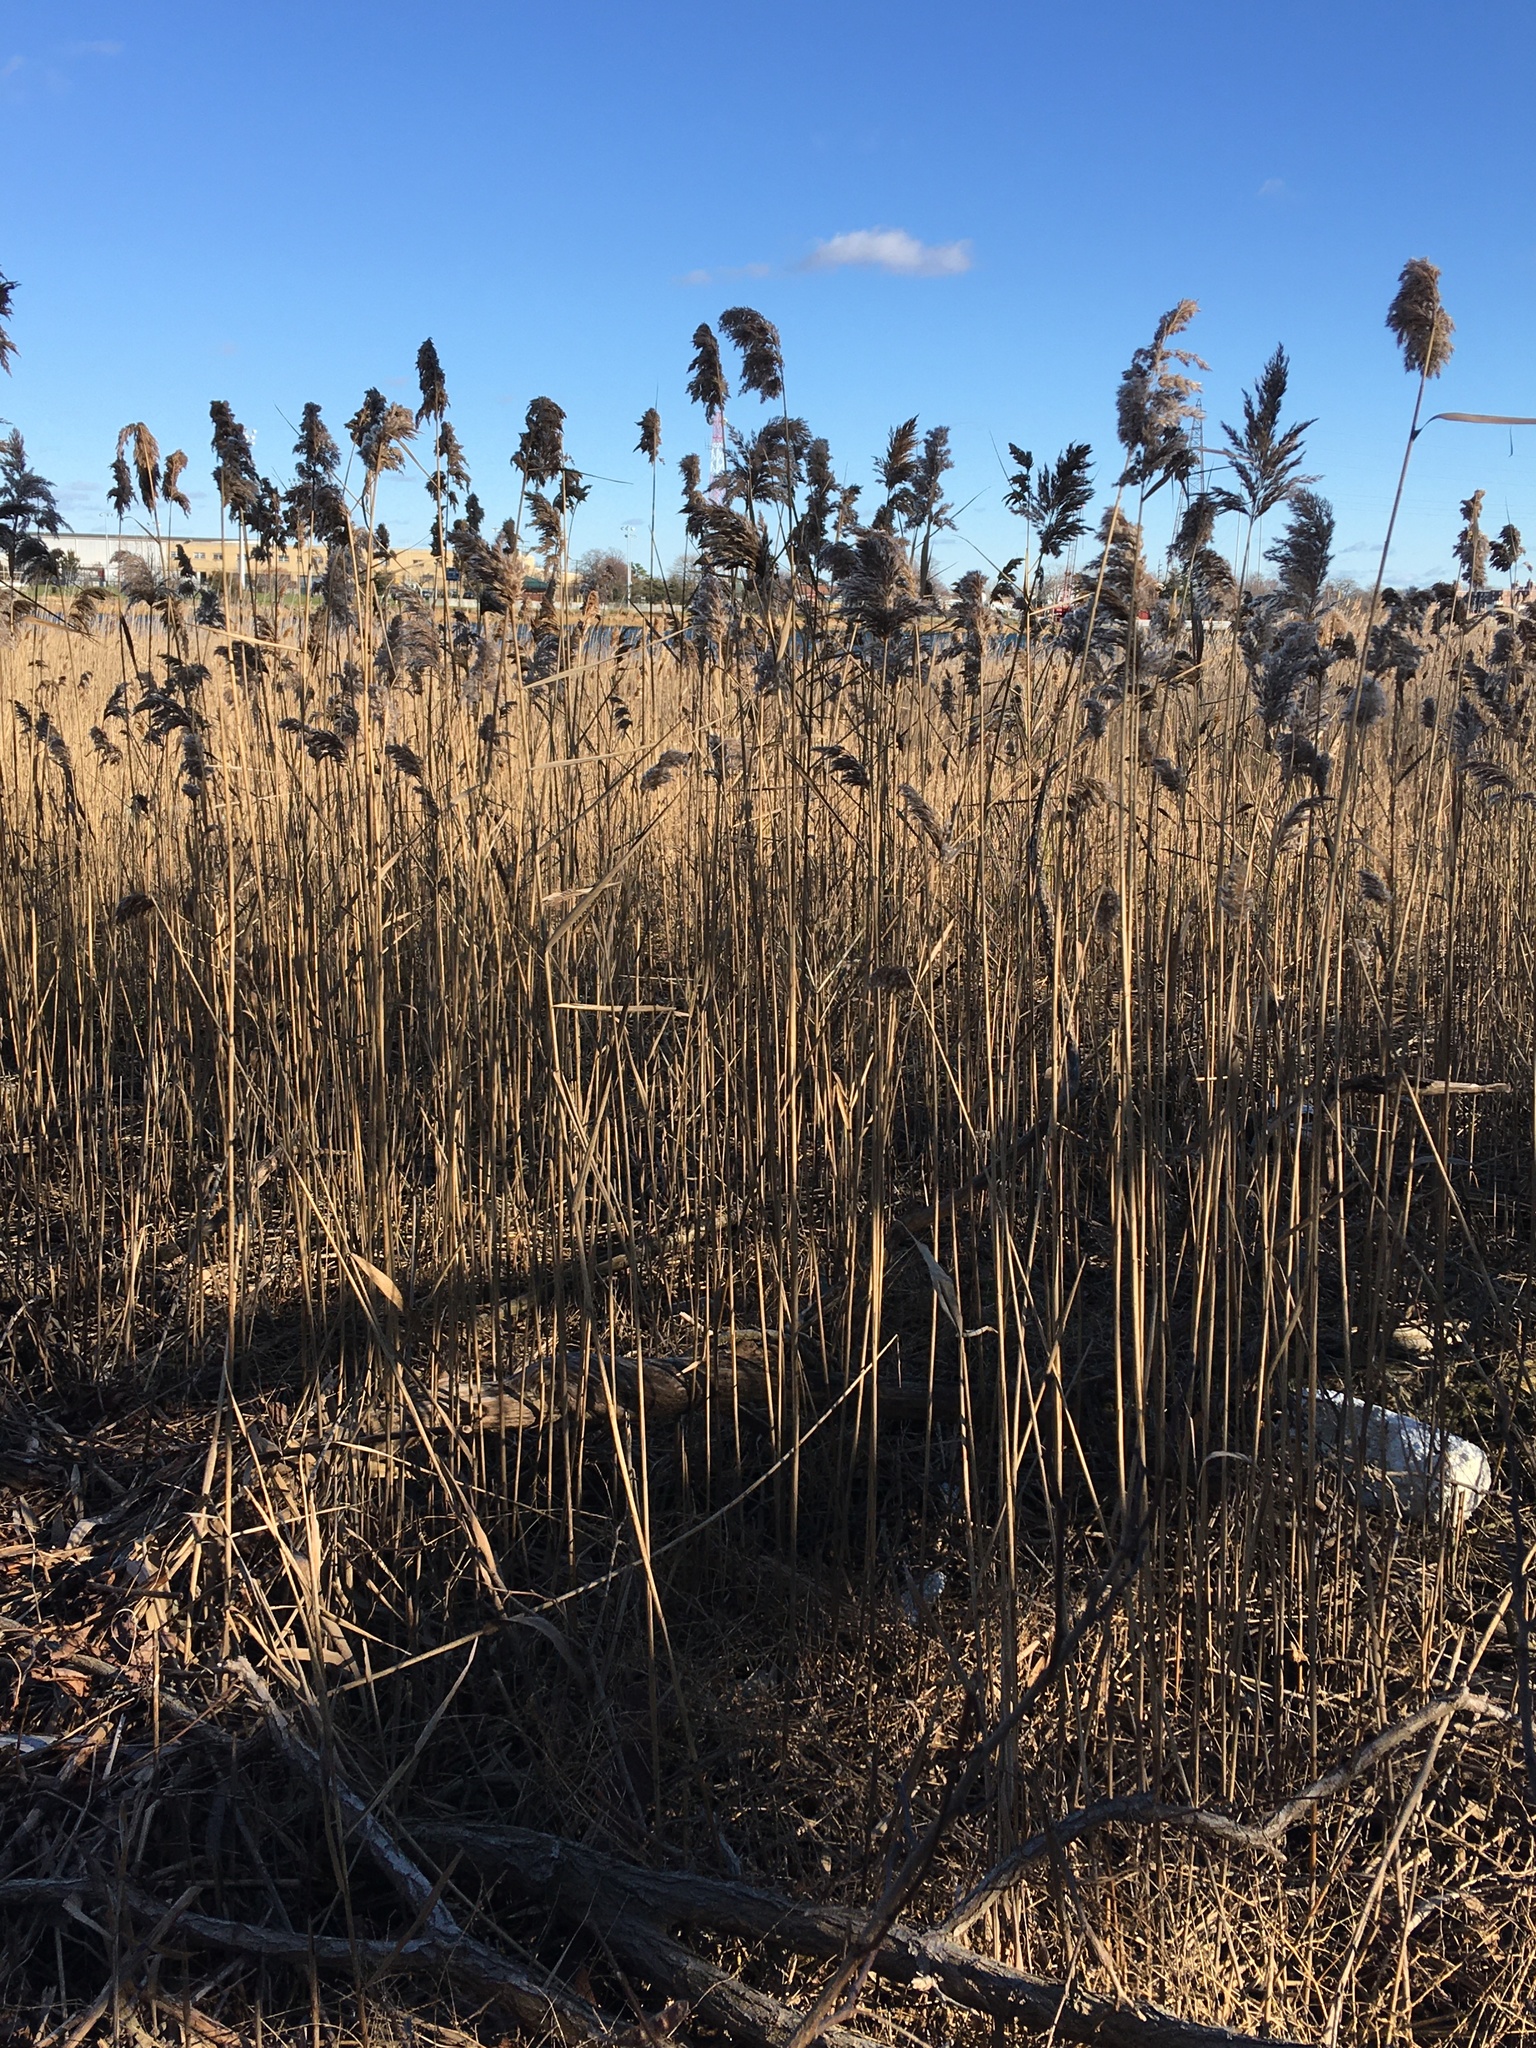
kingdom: Plantae
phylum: Tracheophyta
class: Liliopsida
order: Poales
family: Poaceae
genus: Phragmites
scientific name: Phragmites australis
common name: Common reed
